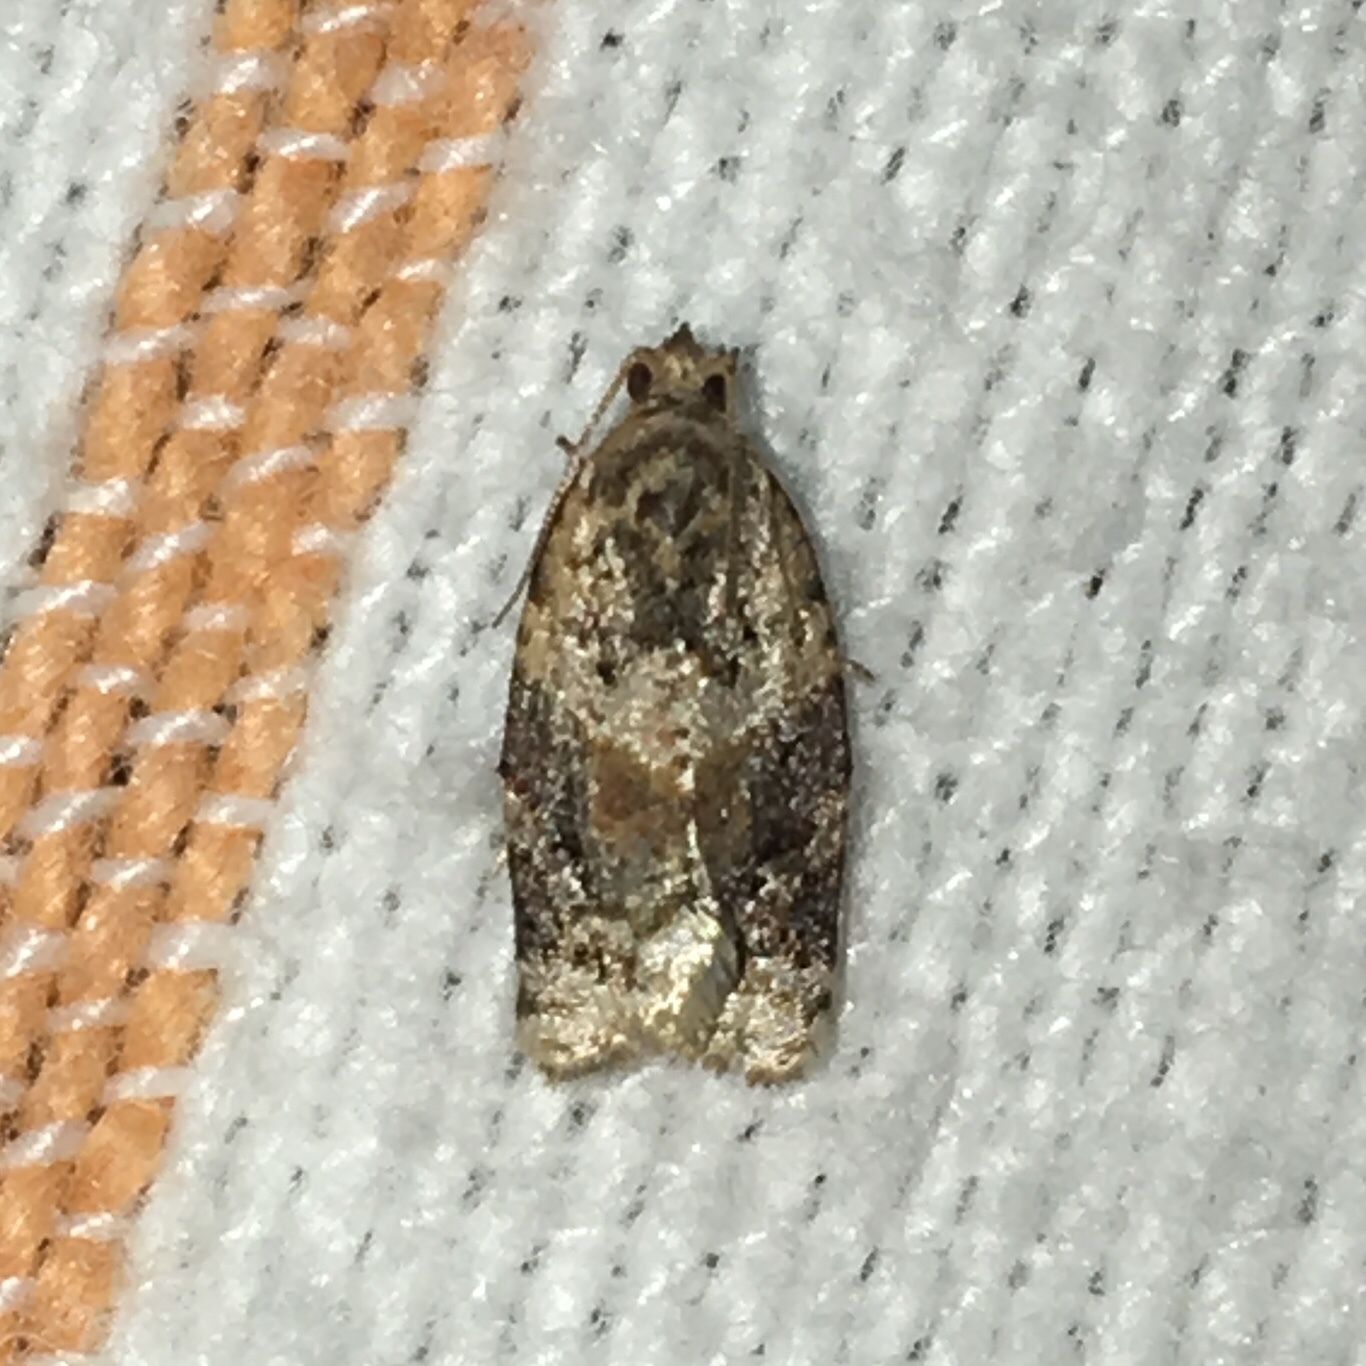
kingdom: Animalia
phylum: Arthropoda
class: Insecta
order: Lepidoptera
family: Tortricidae
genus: Argyrotaenia
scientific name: Argyrotaenia velutinana
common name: Red-banded leafroller moth
